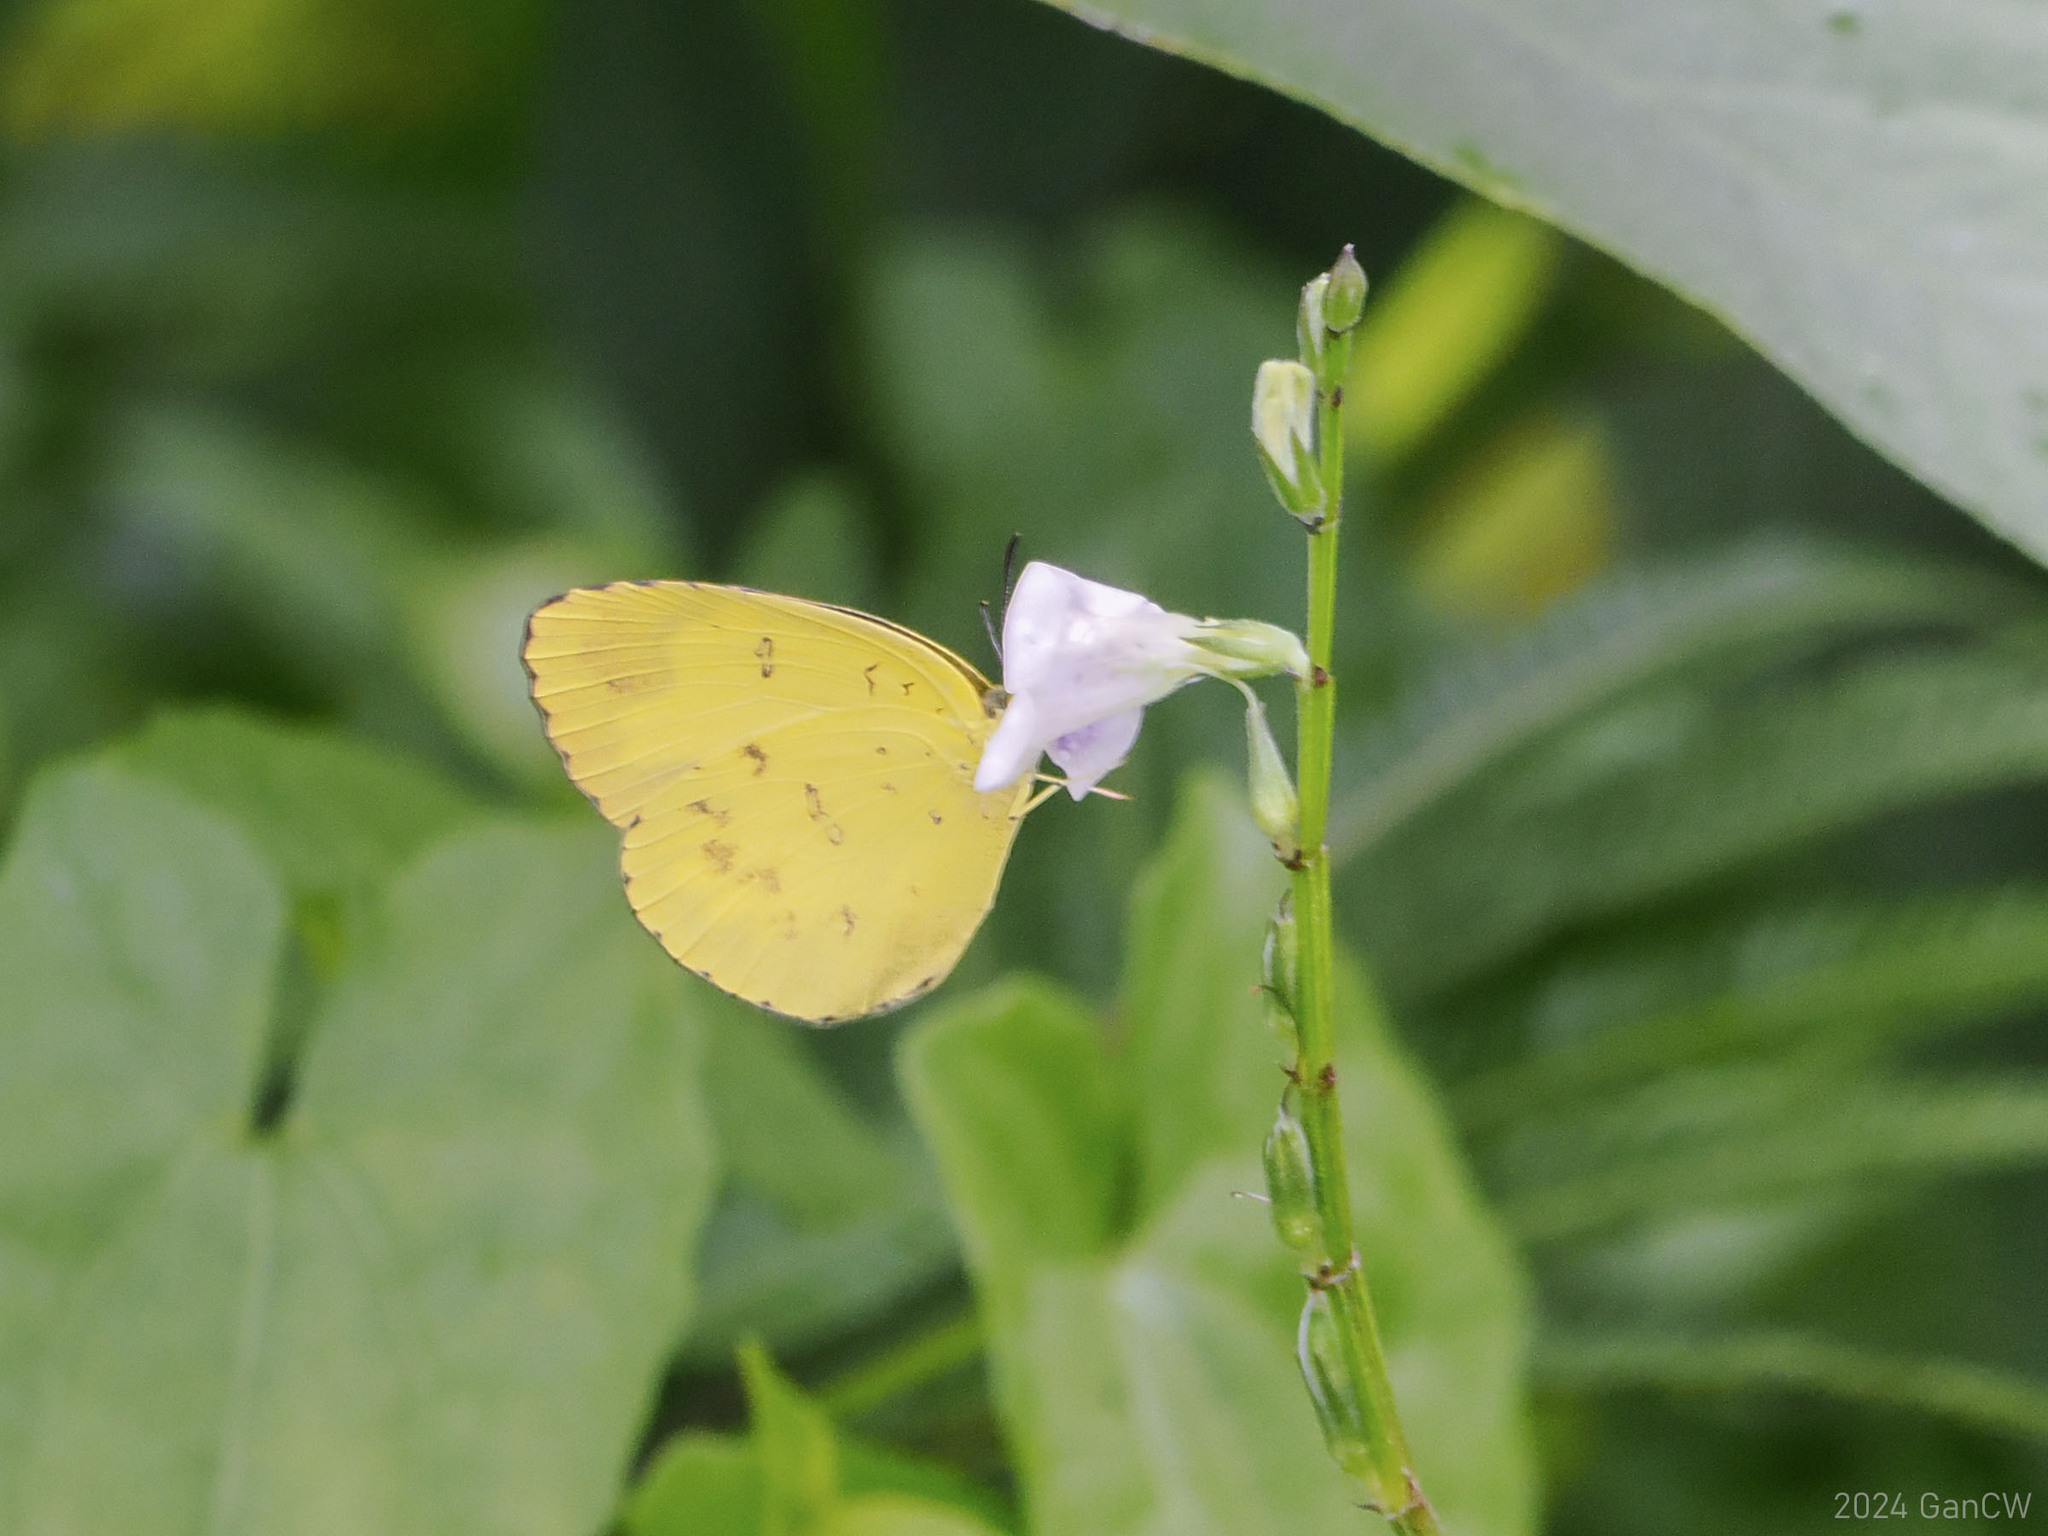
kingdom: Animalia
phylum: Arthropoda
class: Insecta
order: Lepidoptera
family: Pieridae
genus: Eurema
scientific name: Eurema blanda
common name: Three-spot grass yellow
